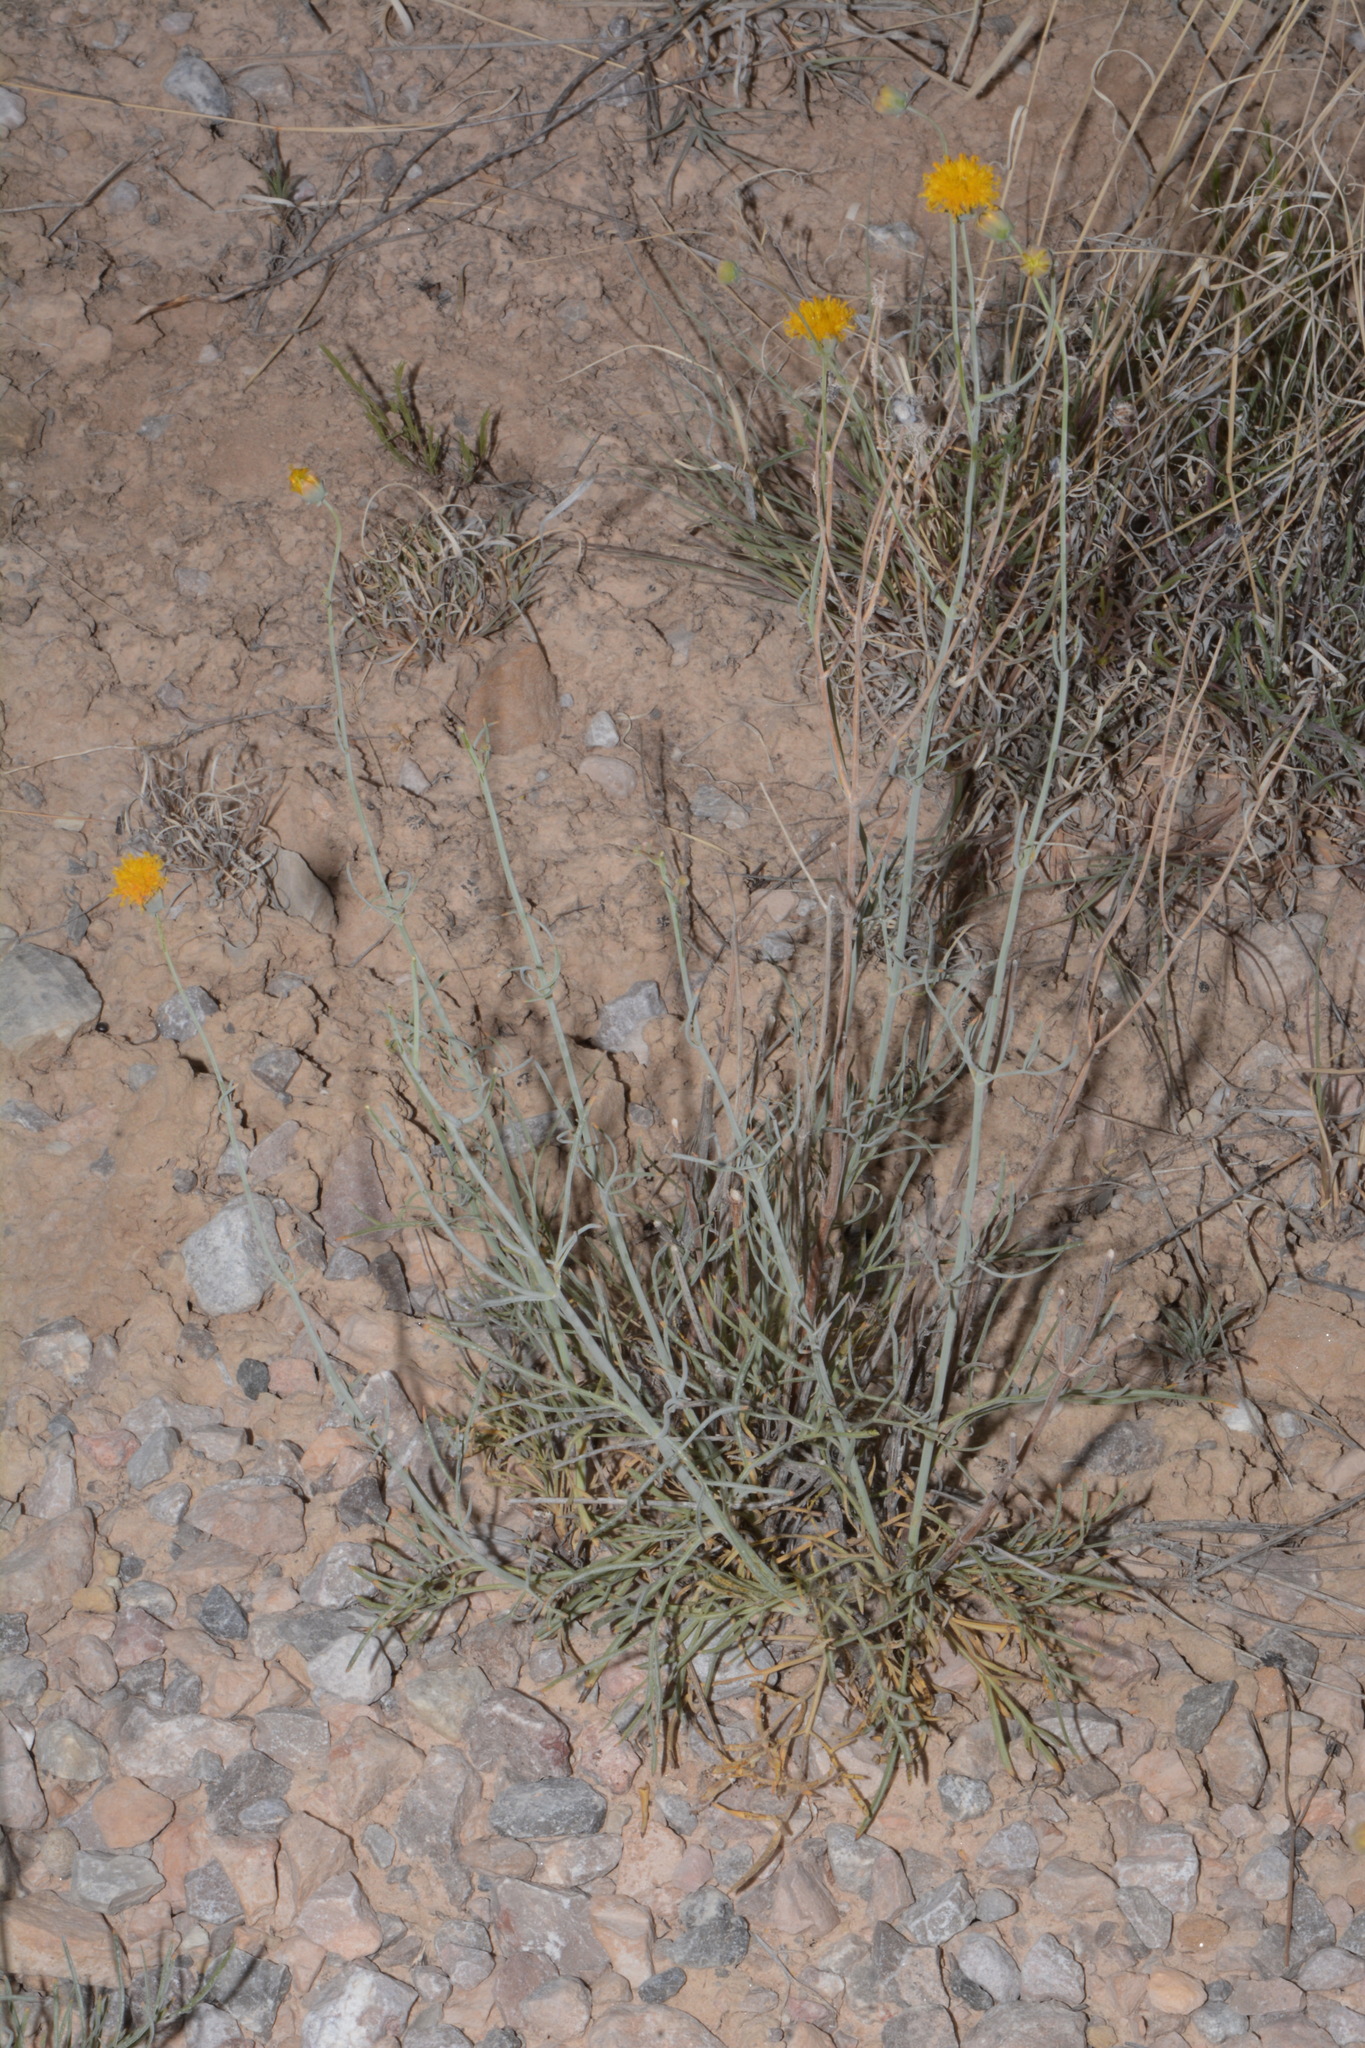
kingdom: Plantae
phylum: Tracheophyta
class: Magnoliopsida
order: Asterales
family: Asteraceae
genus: Thelesperma
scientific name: Thelesperma megapotamicum
